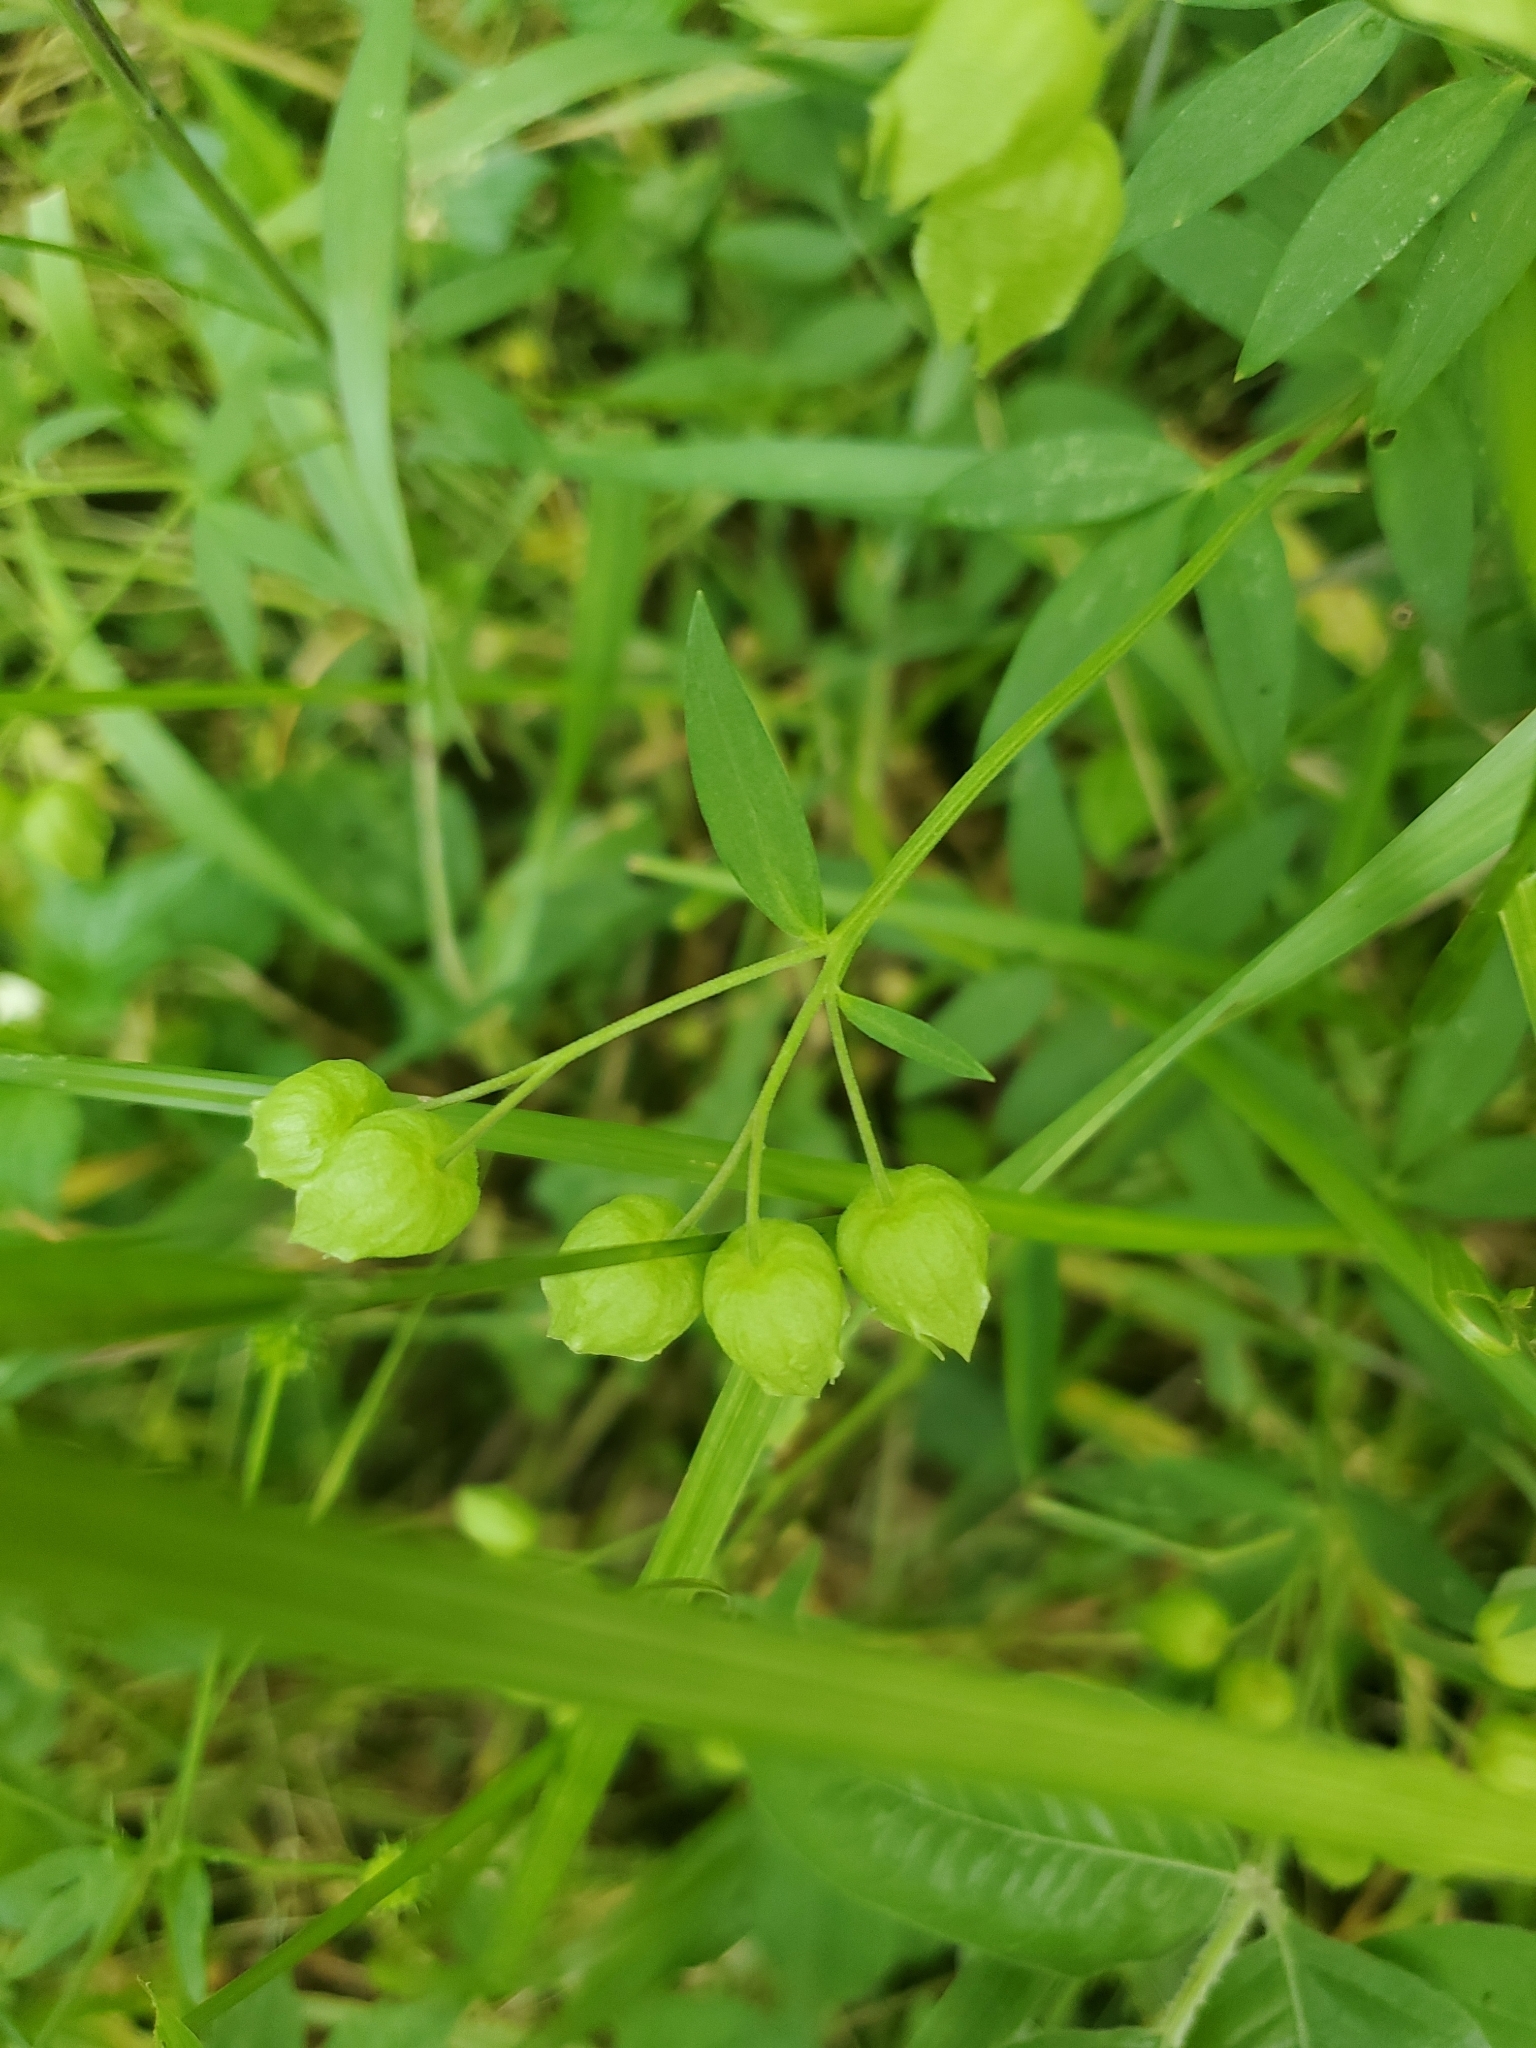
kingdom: Plantae
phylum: Tracheophyta
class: Magnoliopsida
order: Ericales
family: Polemoniaceae
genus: Polemonium
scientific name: Polemonium reptans
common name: Creeping jacob's-ladder
